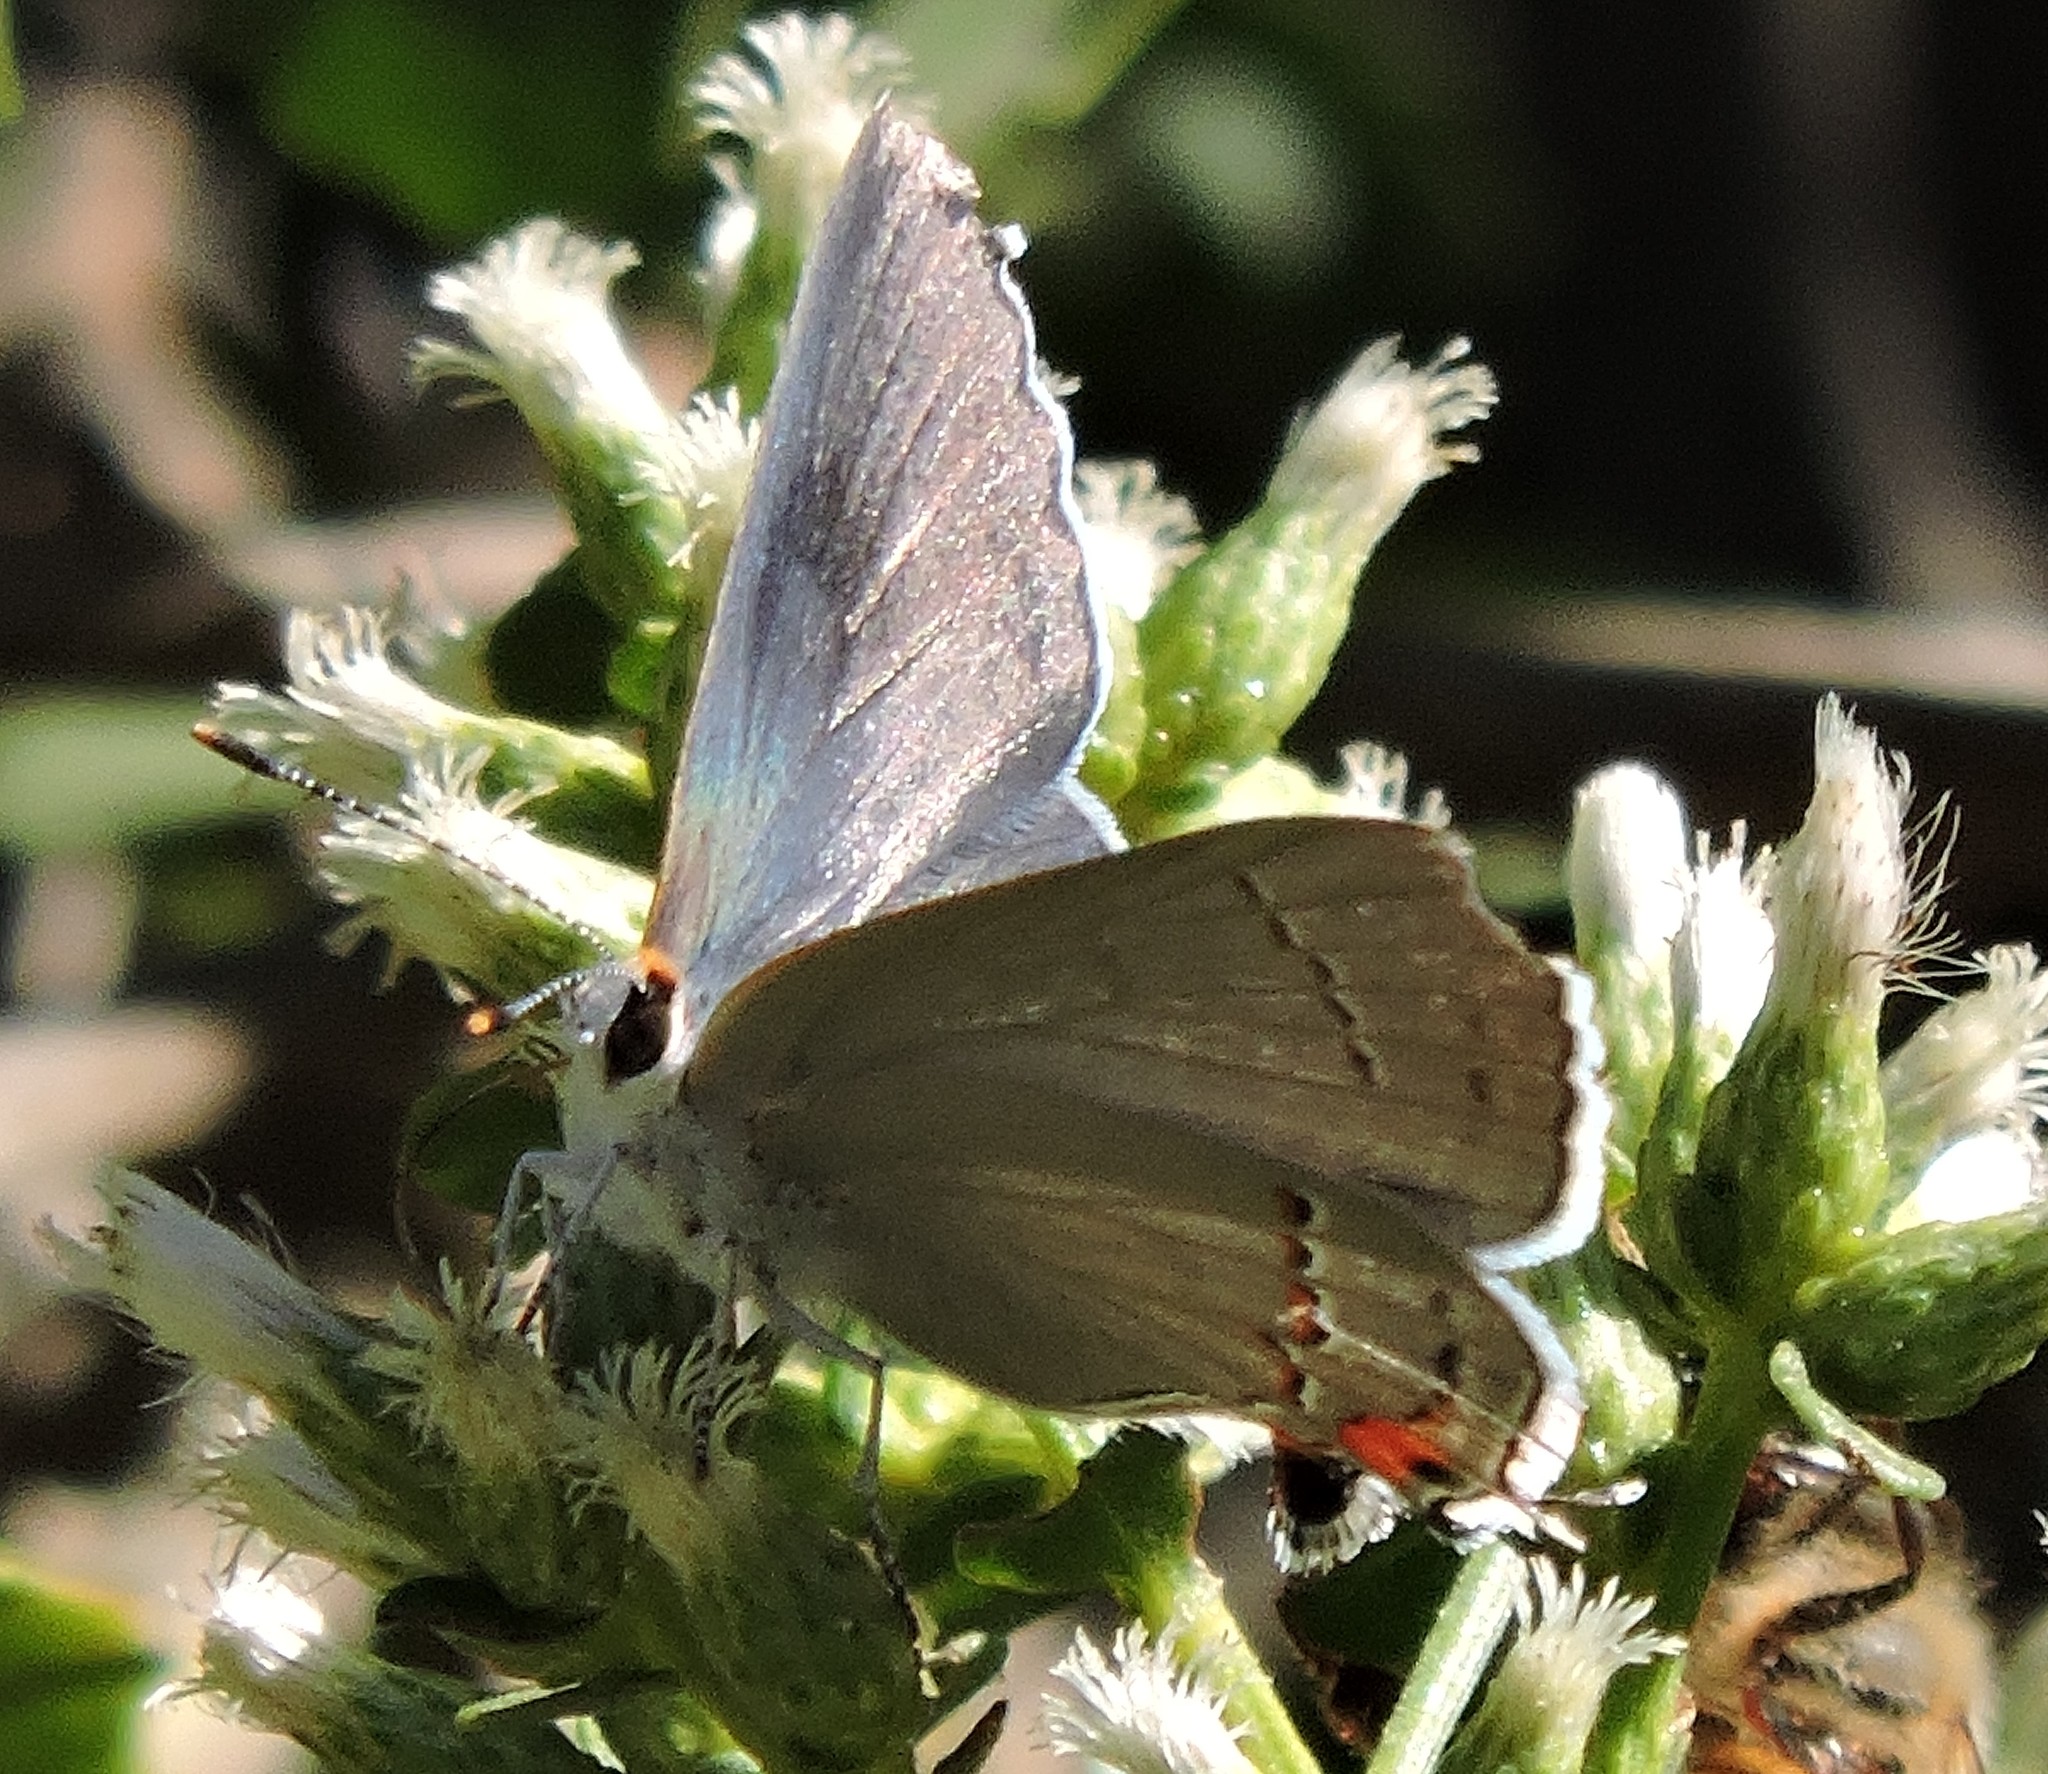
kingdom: Animalia
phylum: Arthropoda
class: Insecta
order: Lepidoptera
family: Lycaenidae
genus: Strymon
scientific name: Strymon melinus
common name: Gray hairstreak
